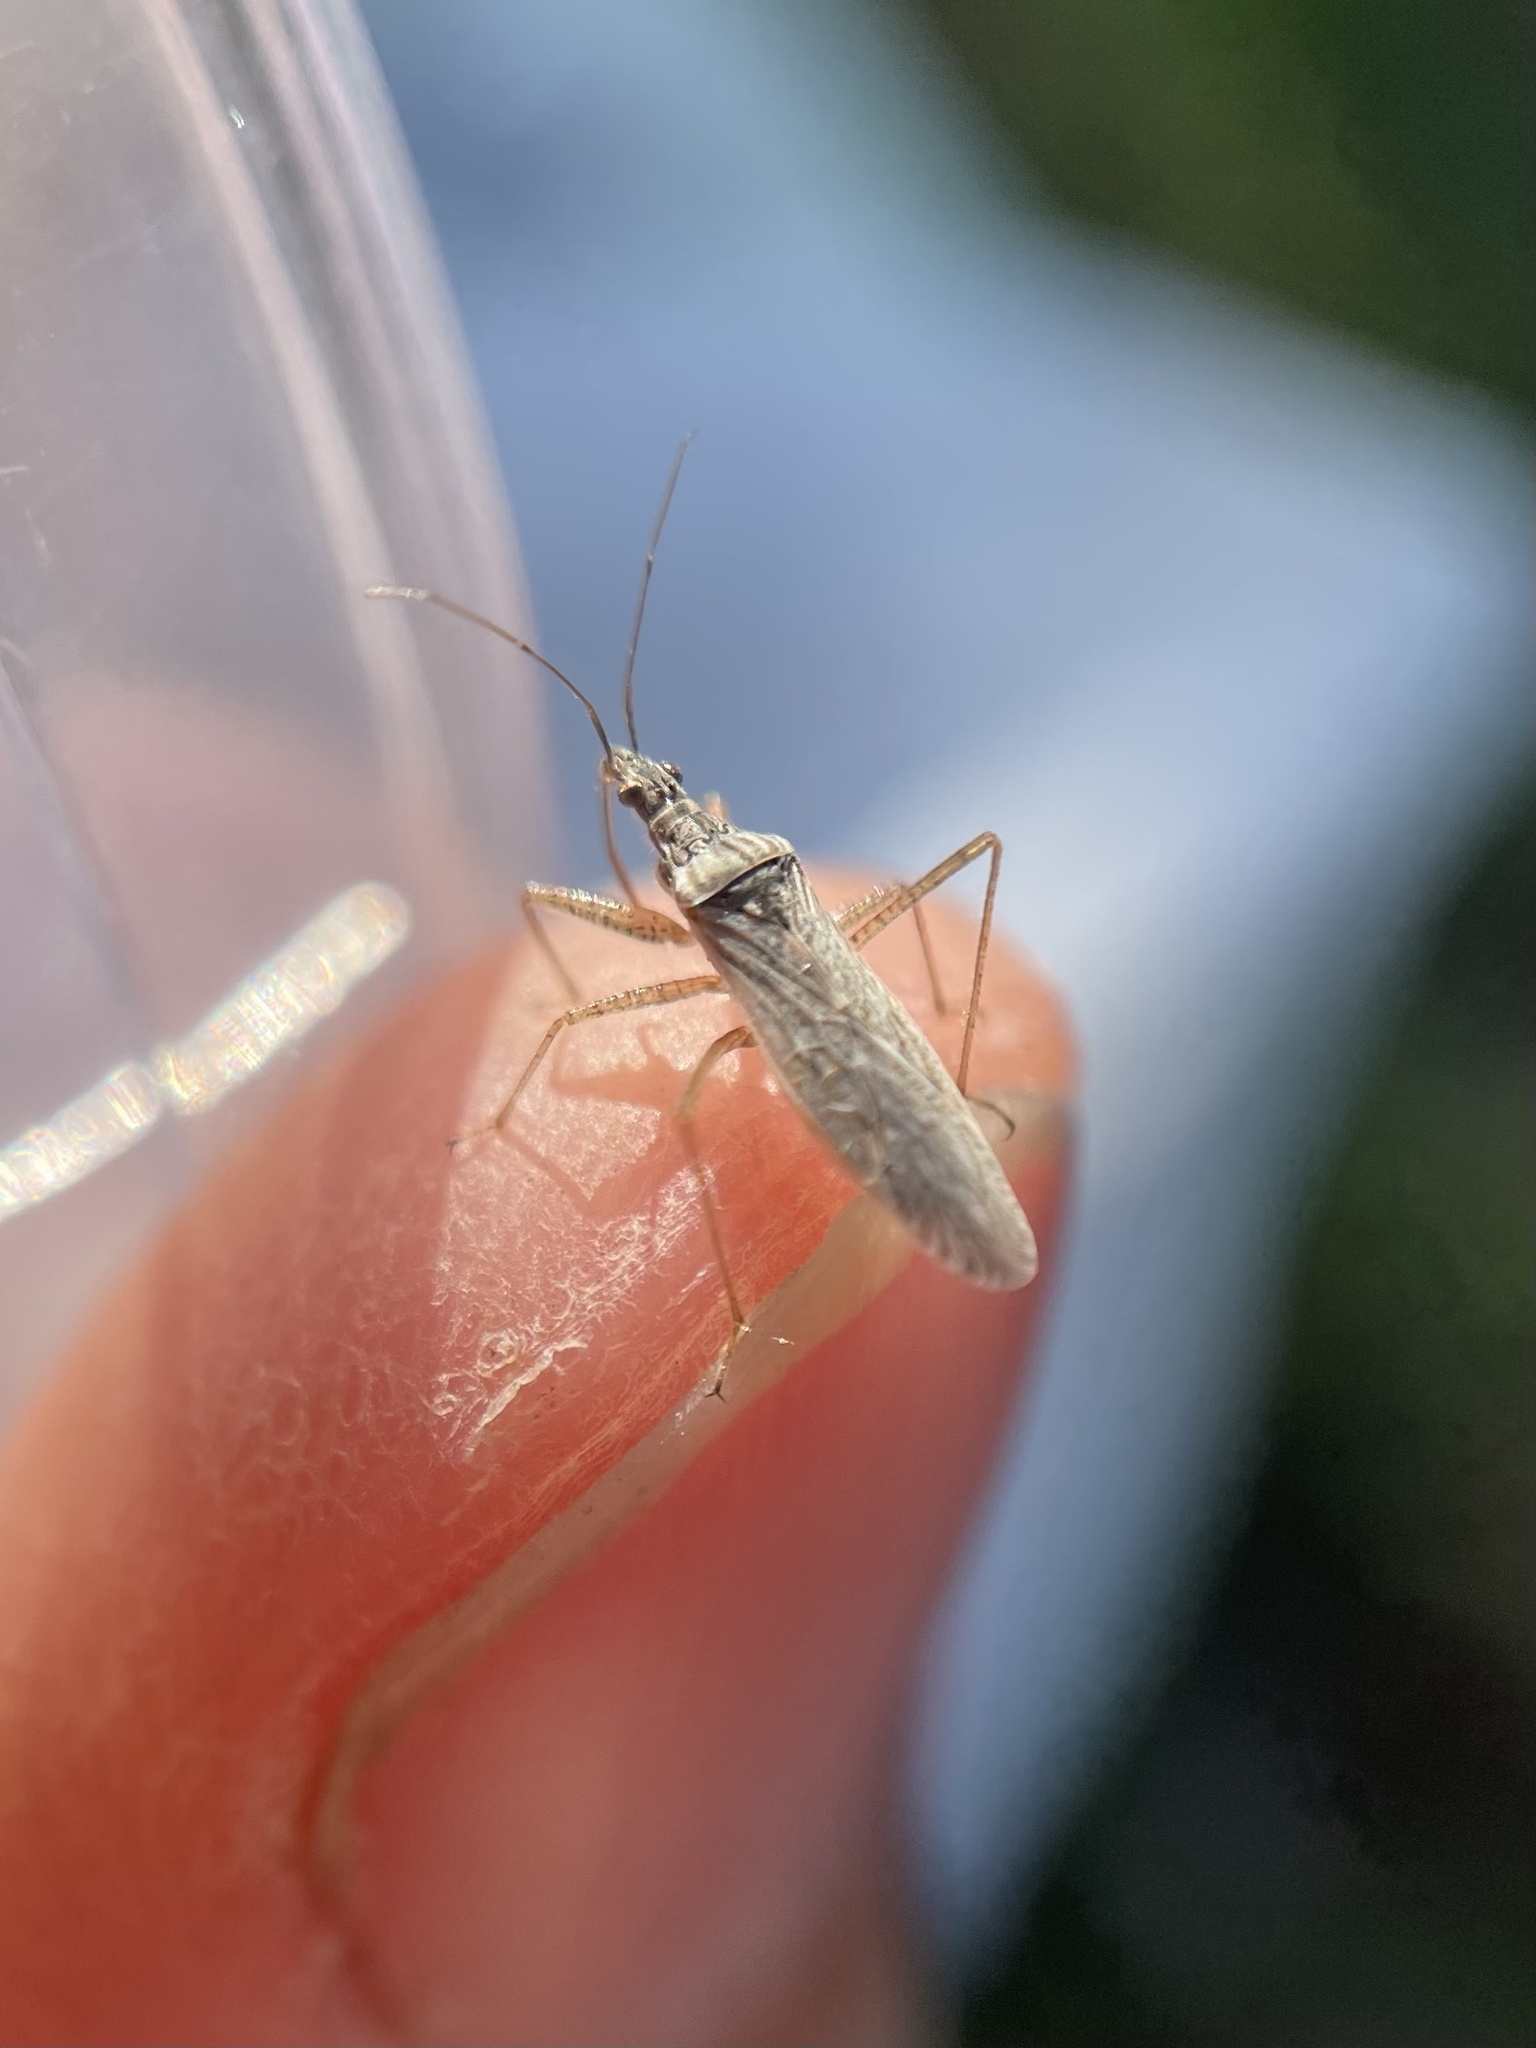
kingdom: Animalia
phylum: Arthropoda
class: Insecta
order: Hemiptera
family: Nabidae
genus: Nabis
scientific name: Nabis americoferus
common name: Common damsel bug
